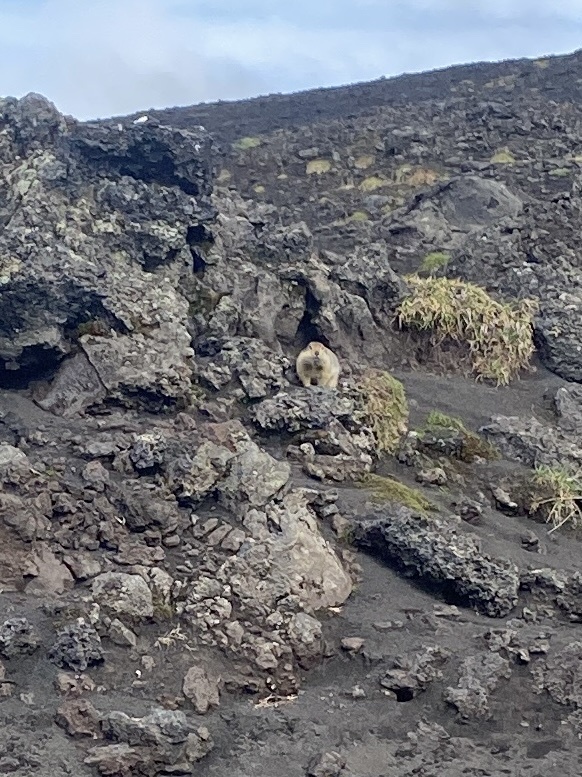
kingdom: Animalia
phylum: Chordata
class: Mammalia
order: Rodentia
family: Sciuridae
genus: Urocitellus
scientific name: Urocitellus parryii
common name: Arctic ground squirrel
